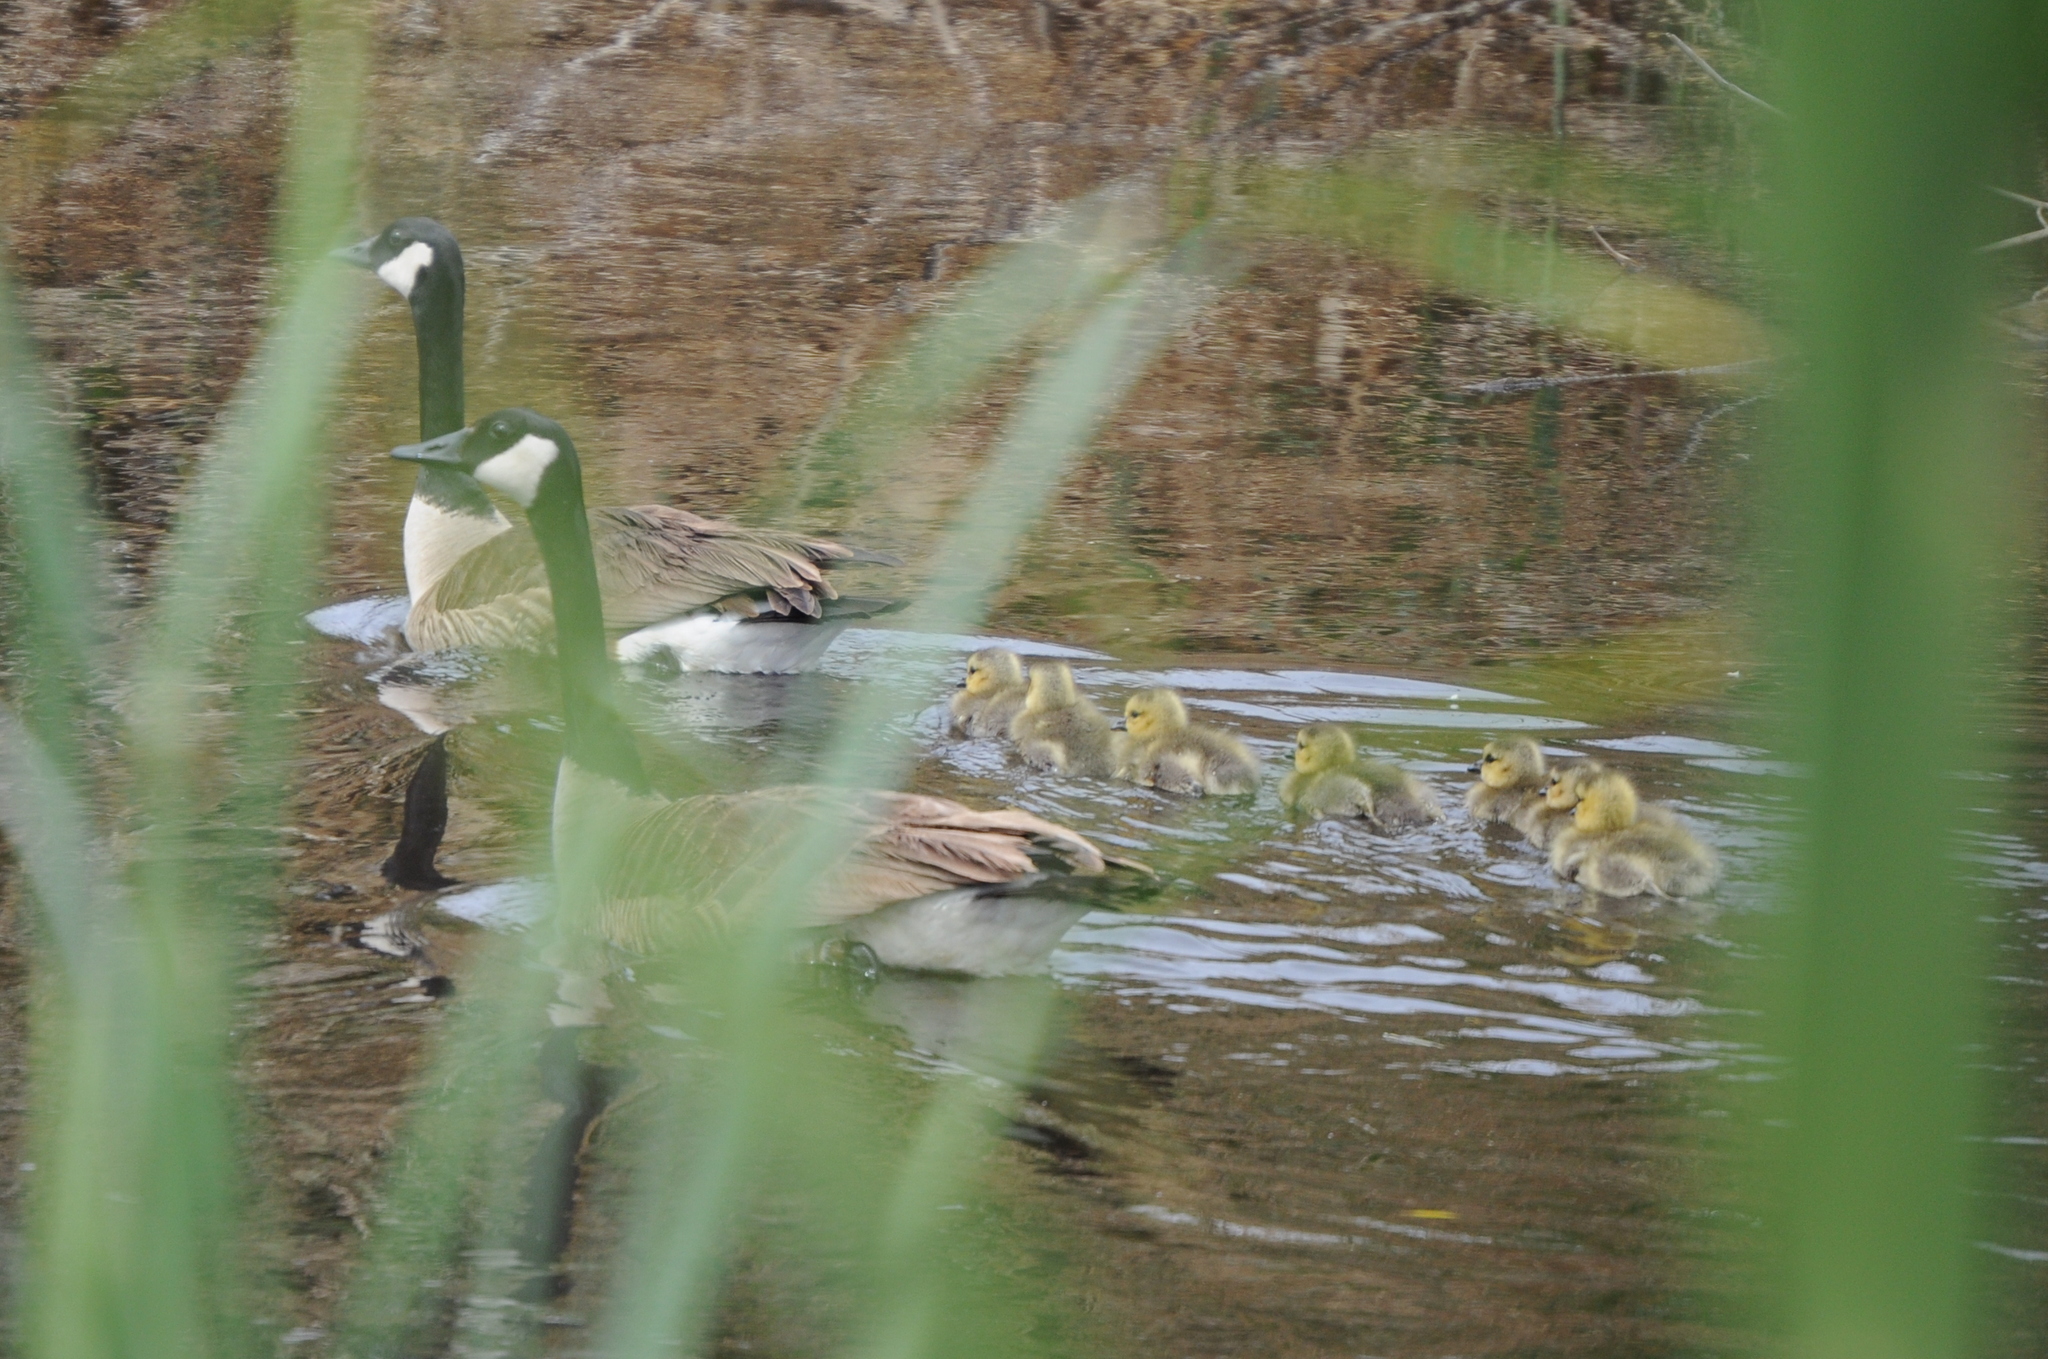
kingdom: Animalia
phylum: Chordata
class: Aves
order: Anseriformes
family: Anatidae
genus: Branta
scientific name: Branta canadensis
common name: Canada goose
